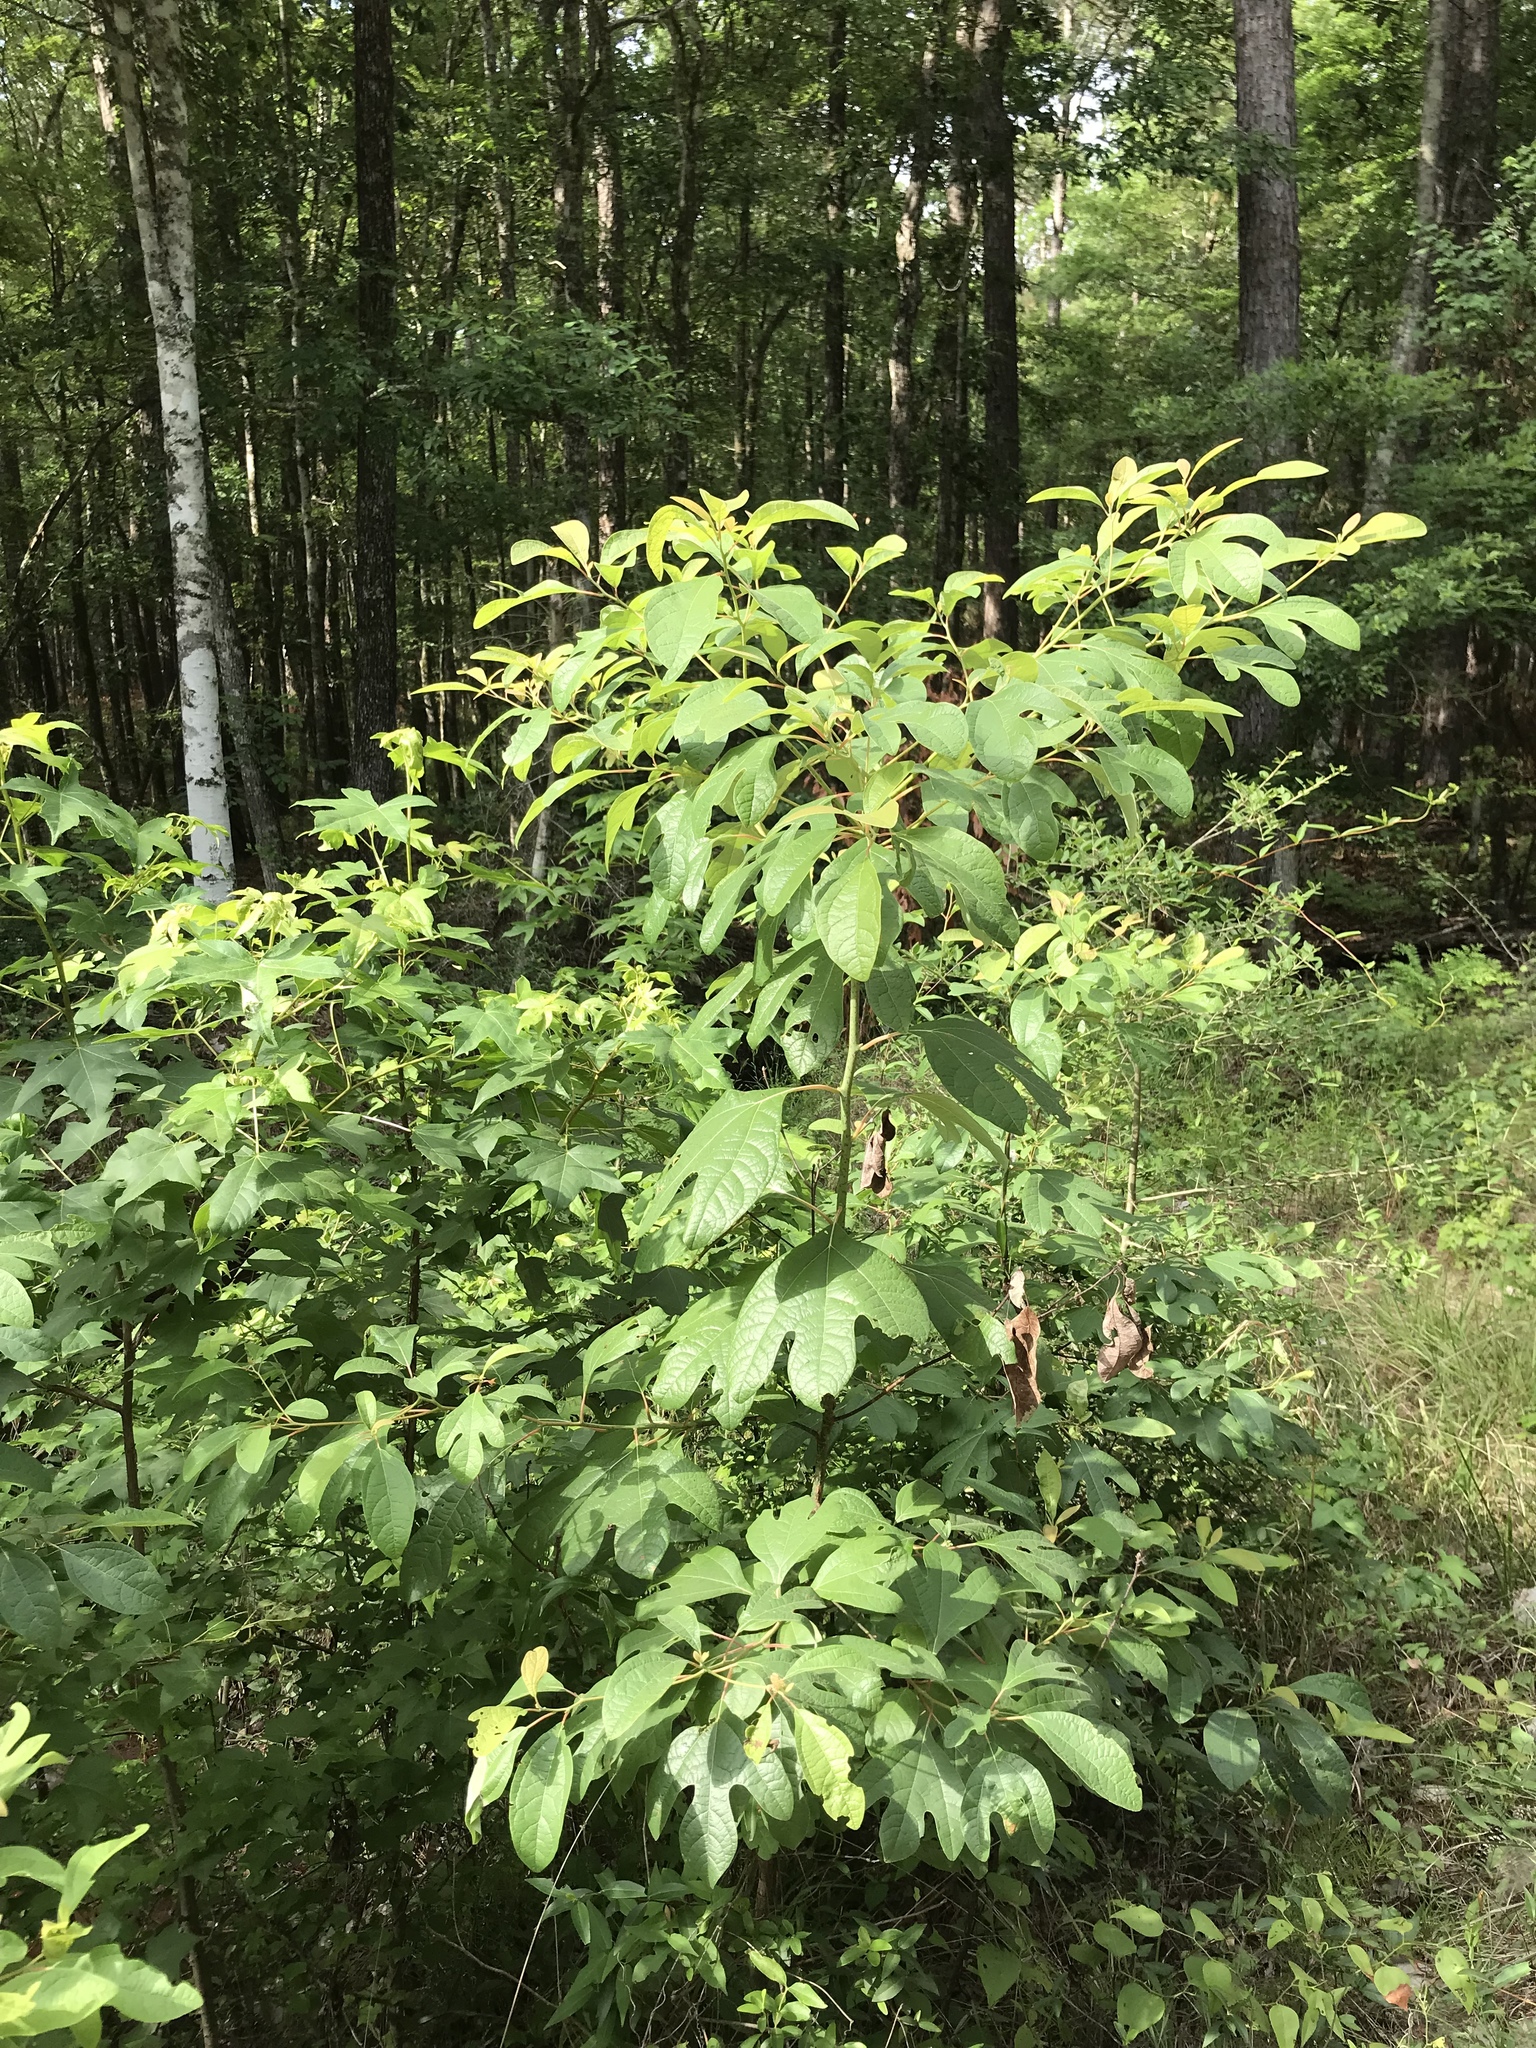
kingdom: Plantae
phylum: Tracheophyta
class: Magnoliopsida
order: Laurales
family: Lauraceae
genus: Sassafras
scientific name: Sassafras albidum
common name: Sassafras
